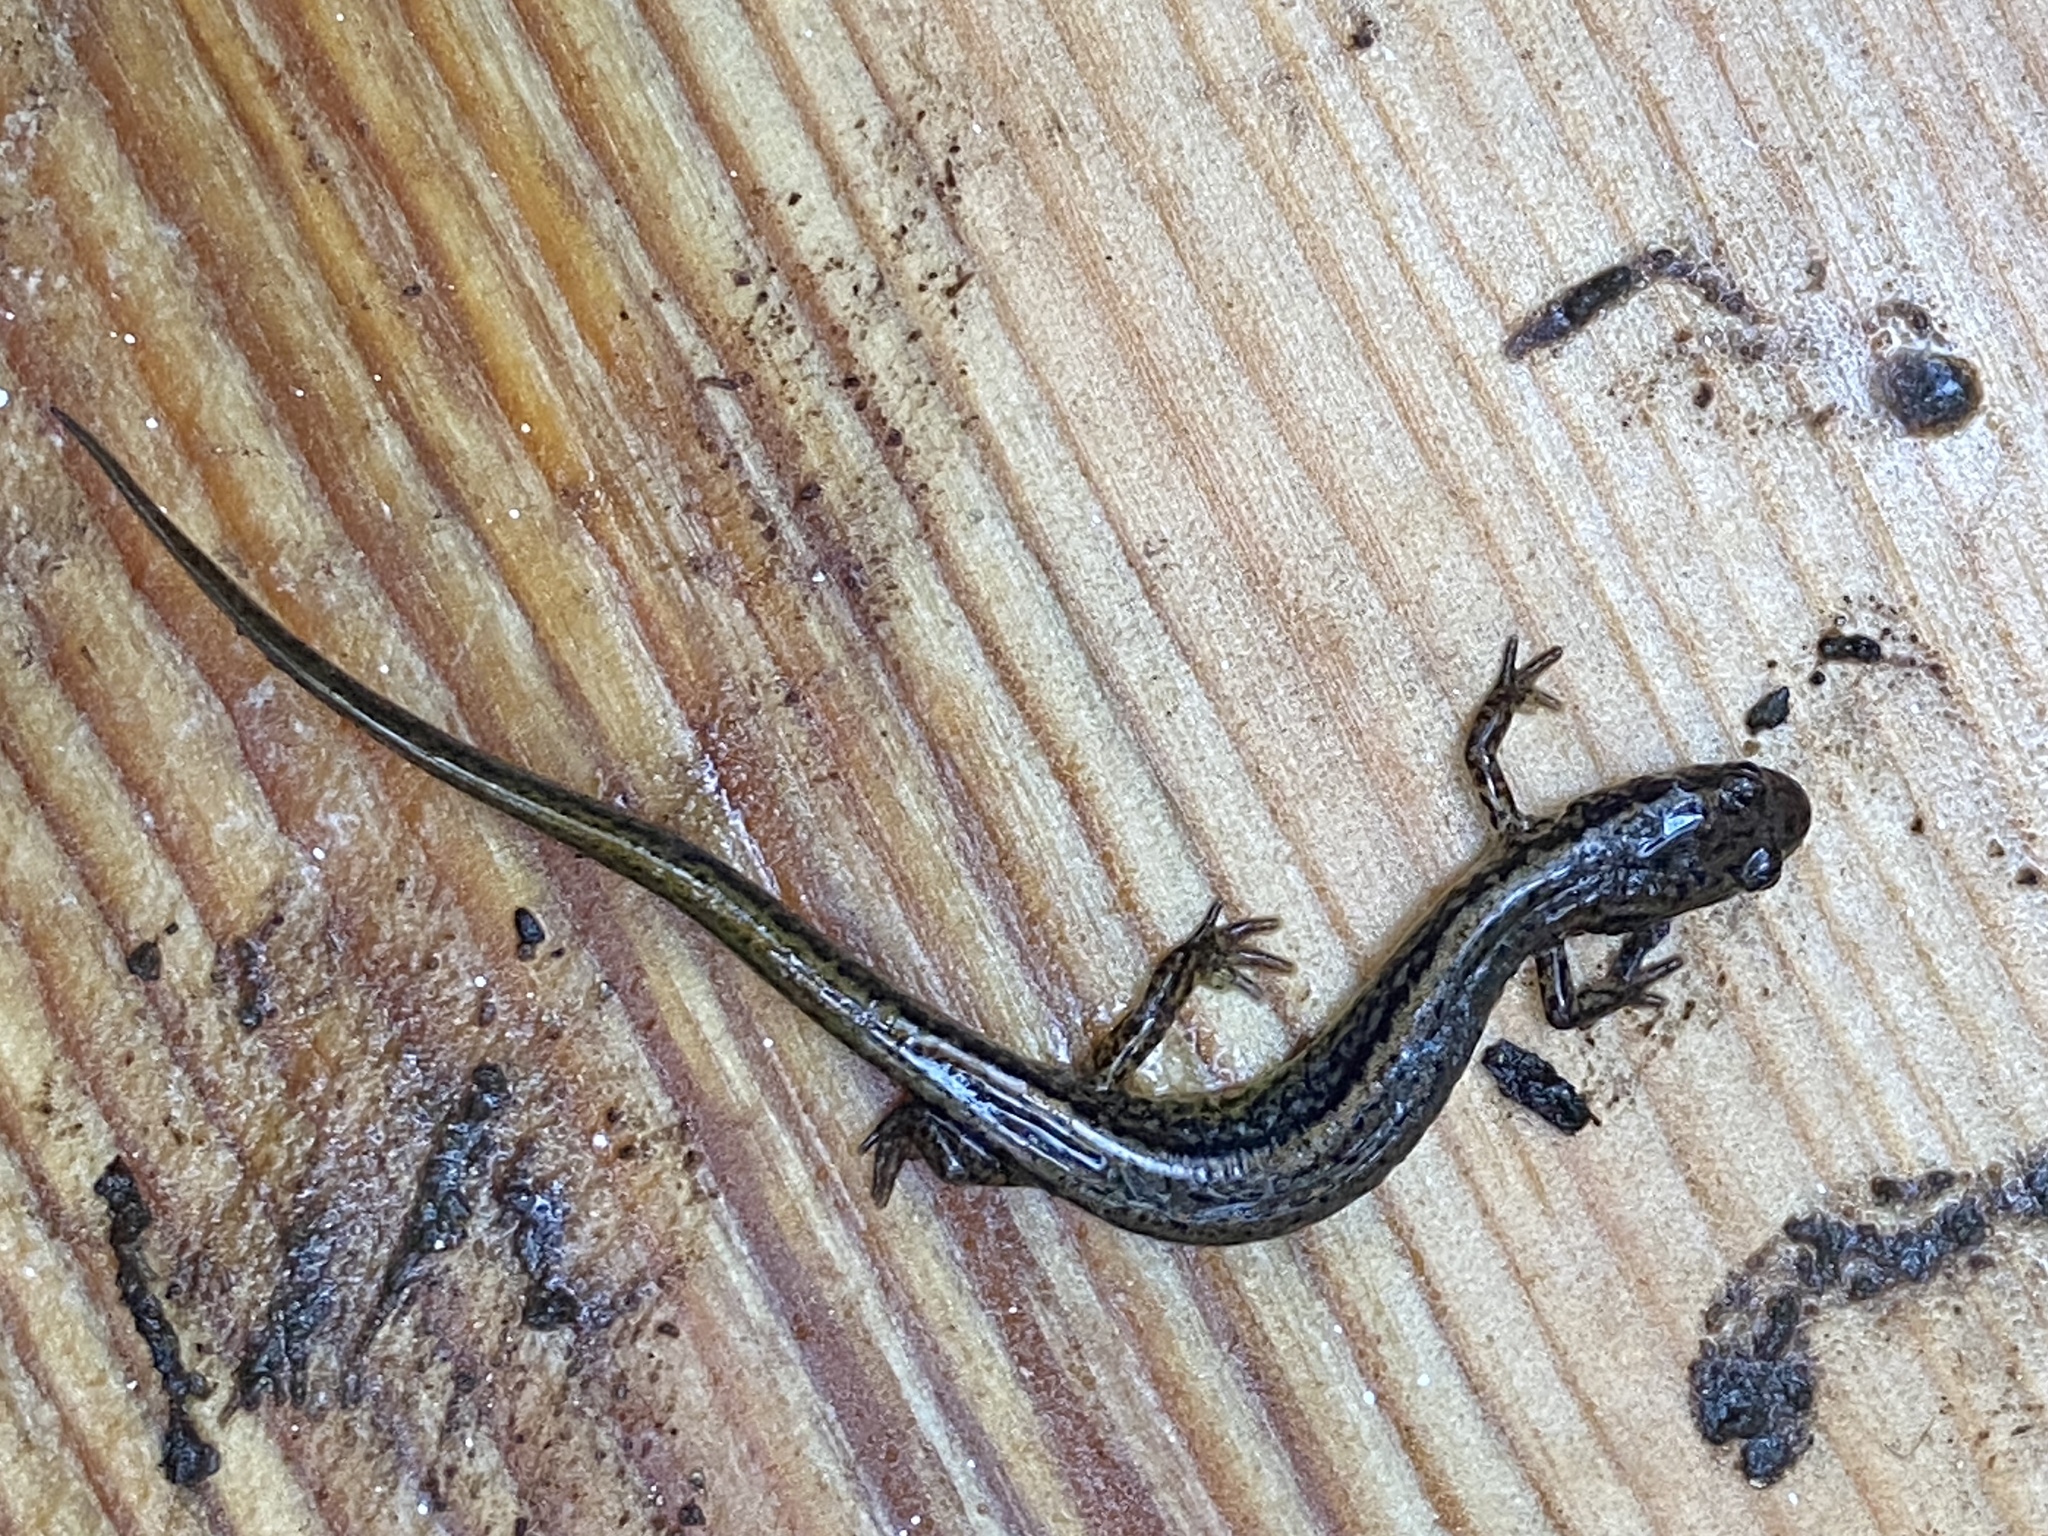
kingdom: Animalia
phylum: Chordata
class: Amphibia
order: Caudata
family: Plethodontidae
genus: Eurycea
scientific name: Eurycea bislineata
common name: Northern two-lined salamander
